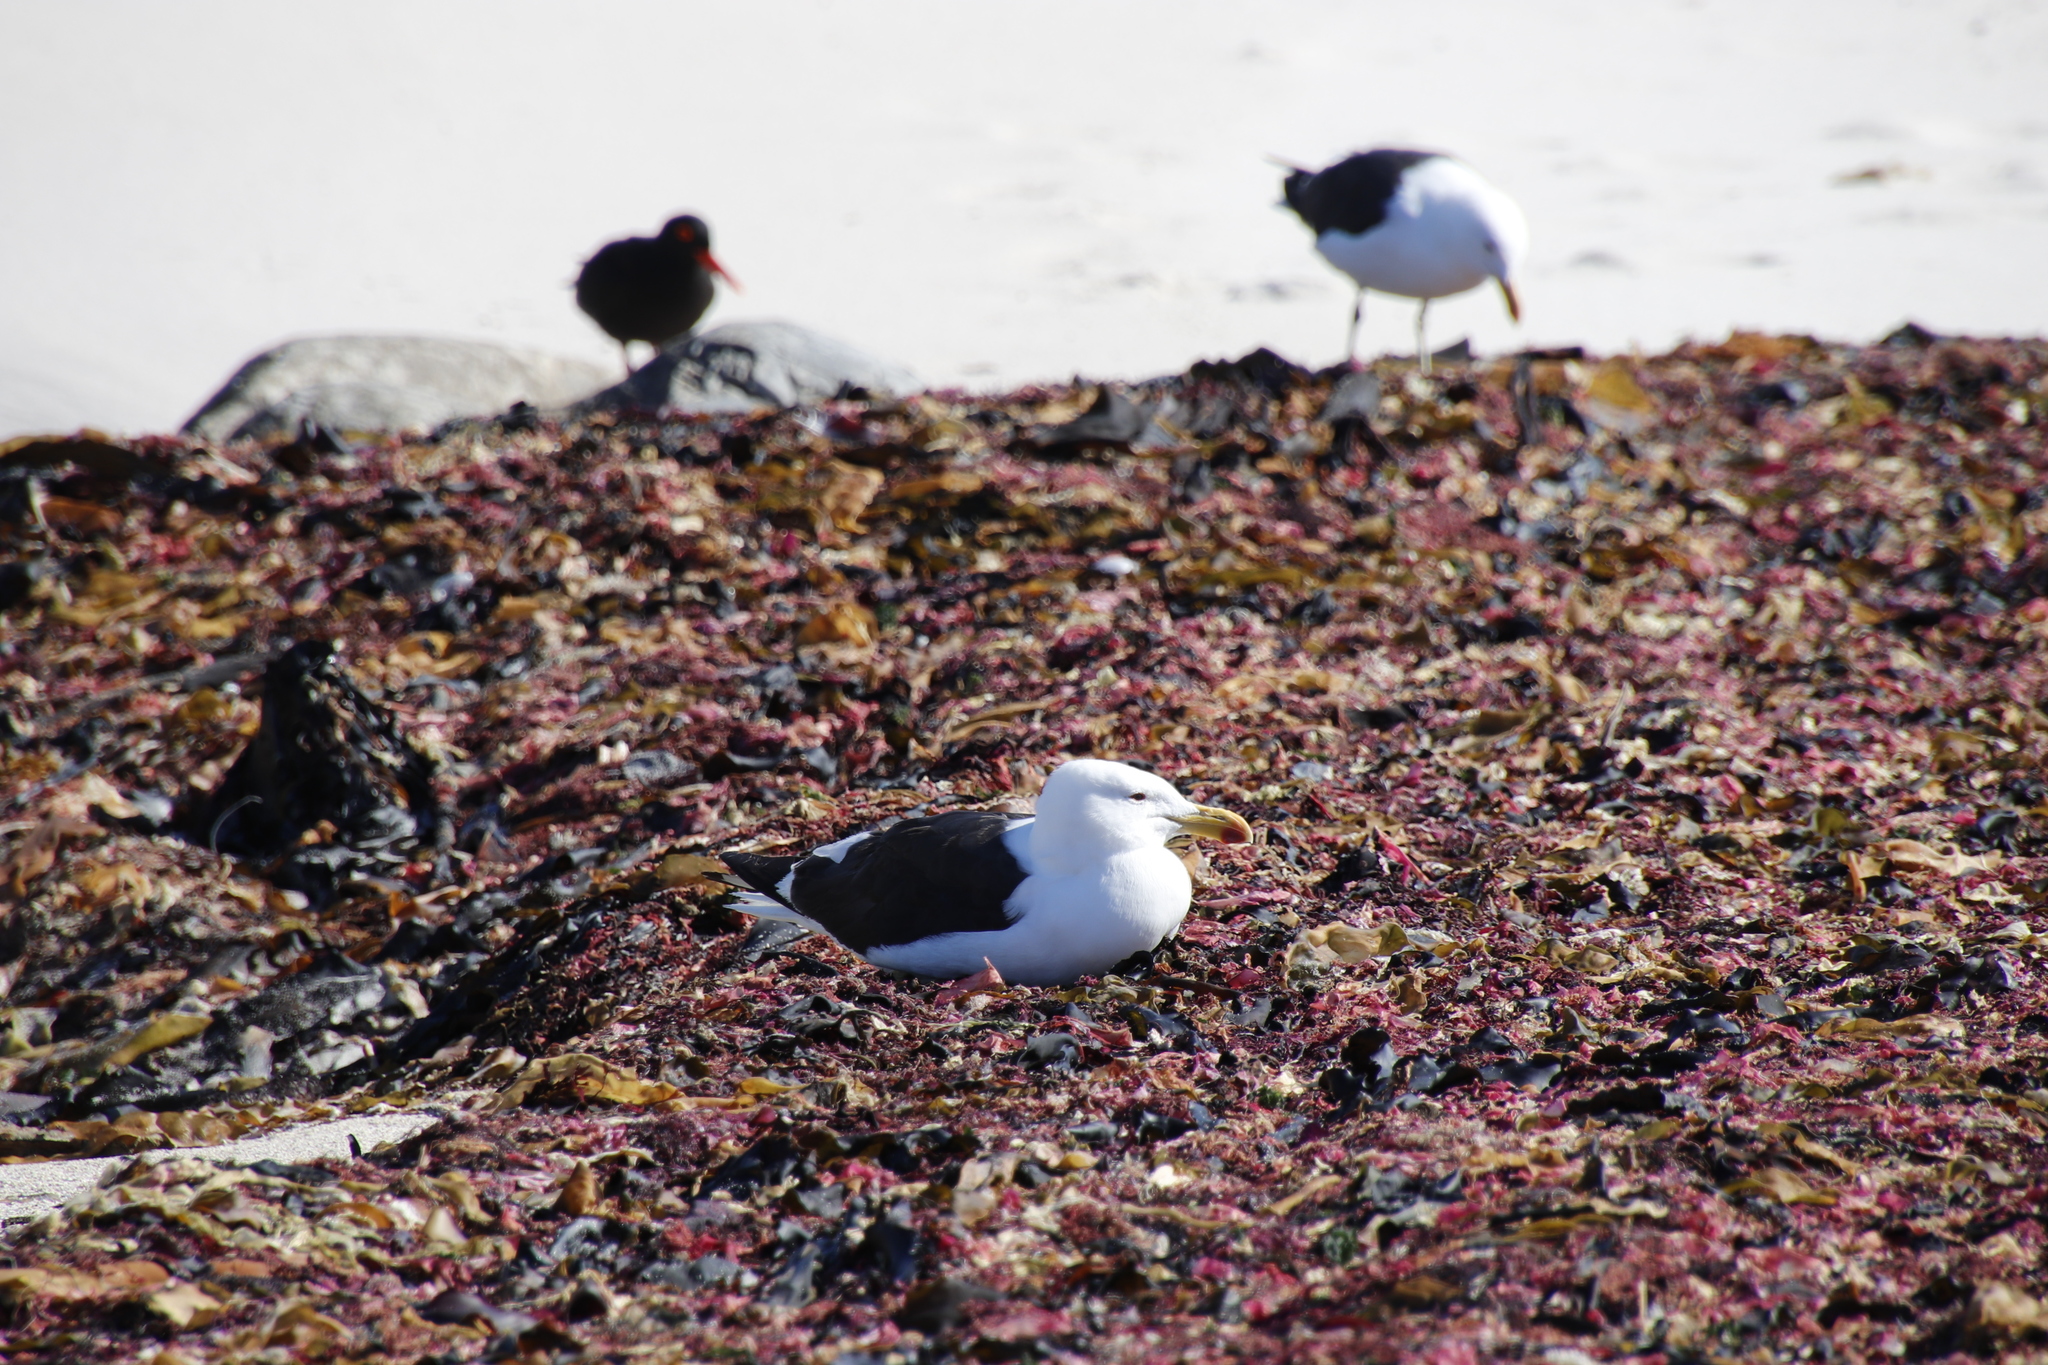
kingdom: Animalia
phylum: Chordata
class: Aves
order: Charadriiformes
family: Laridae
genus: Larus
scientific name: Larus dominicanus
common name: Kelp gull
